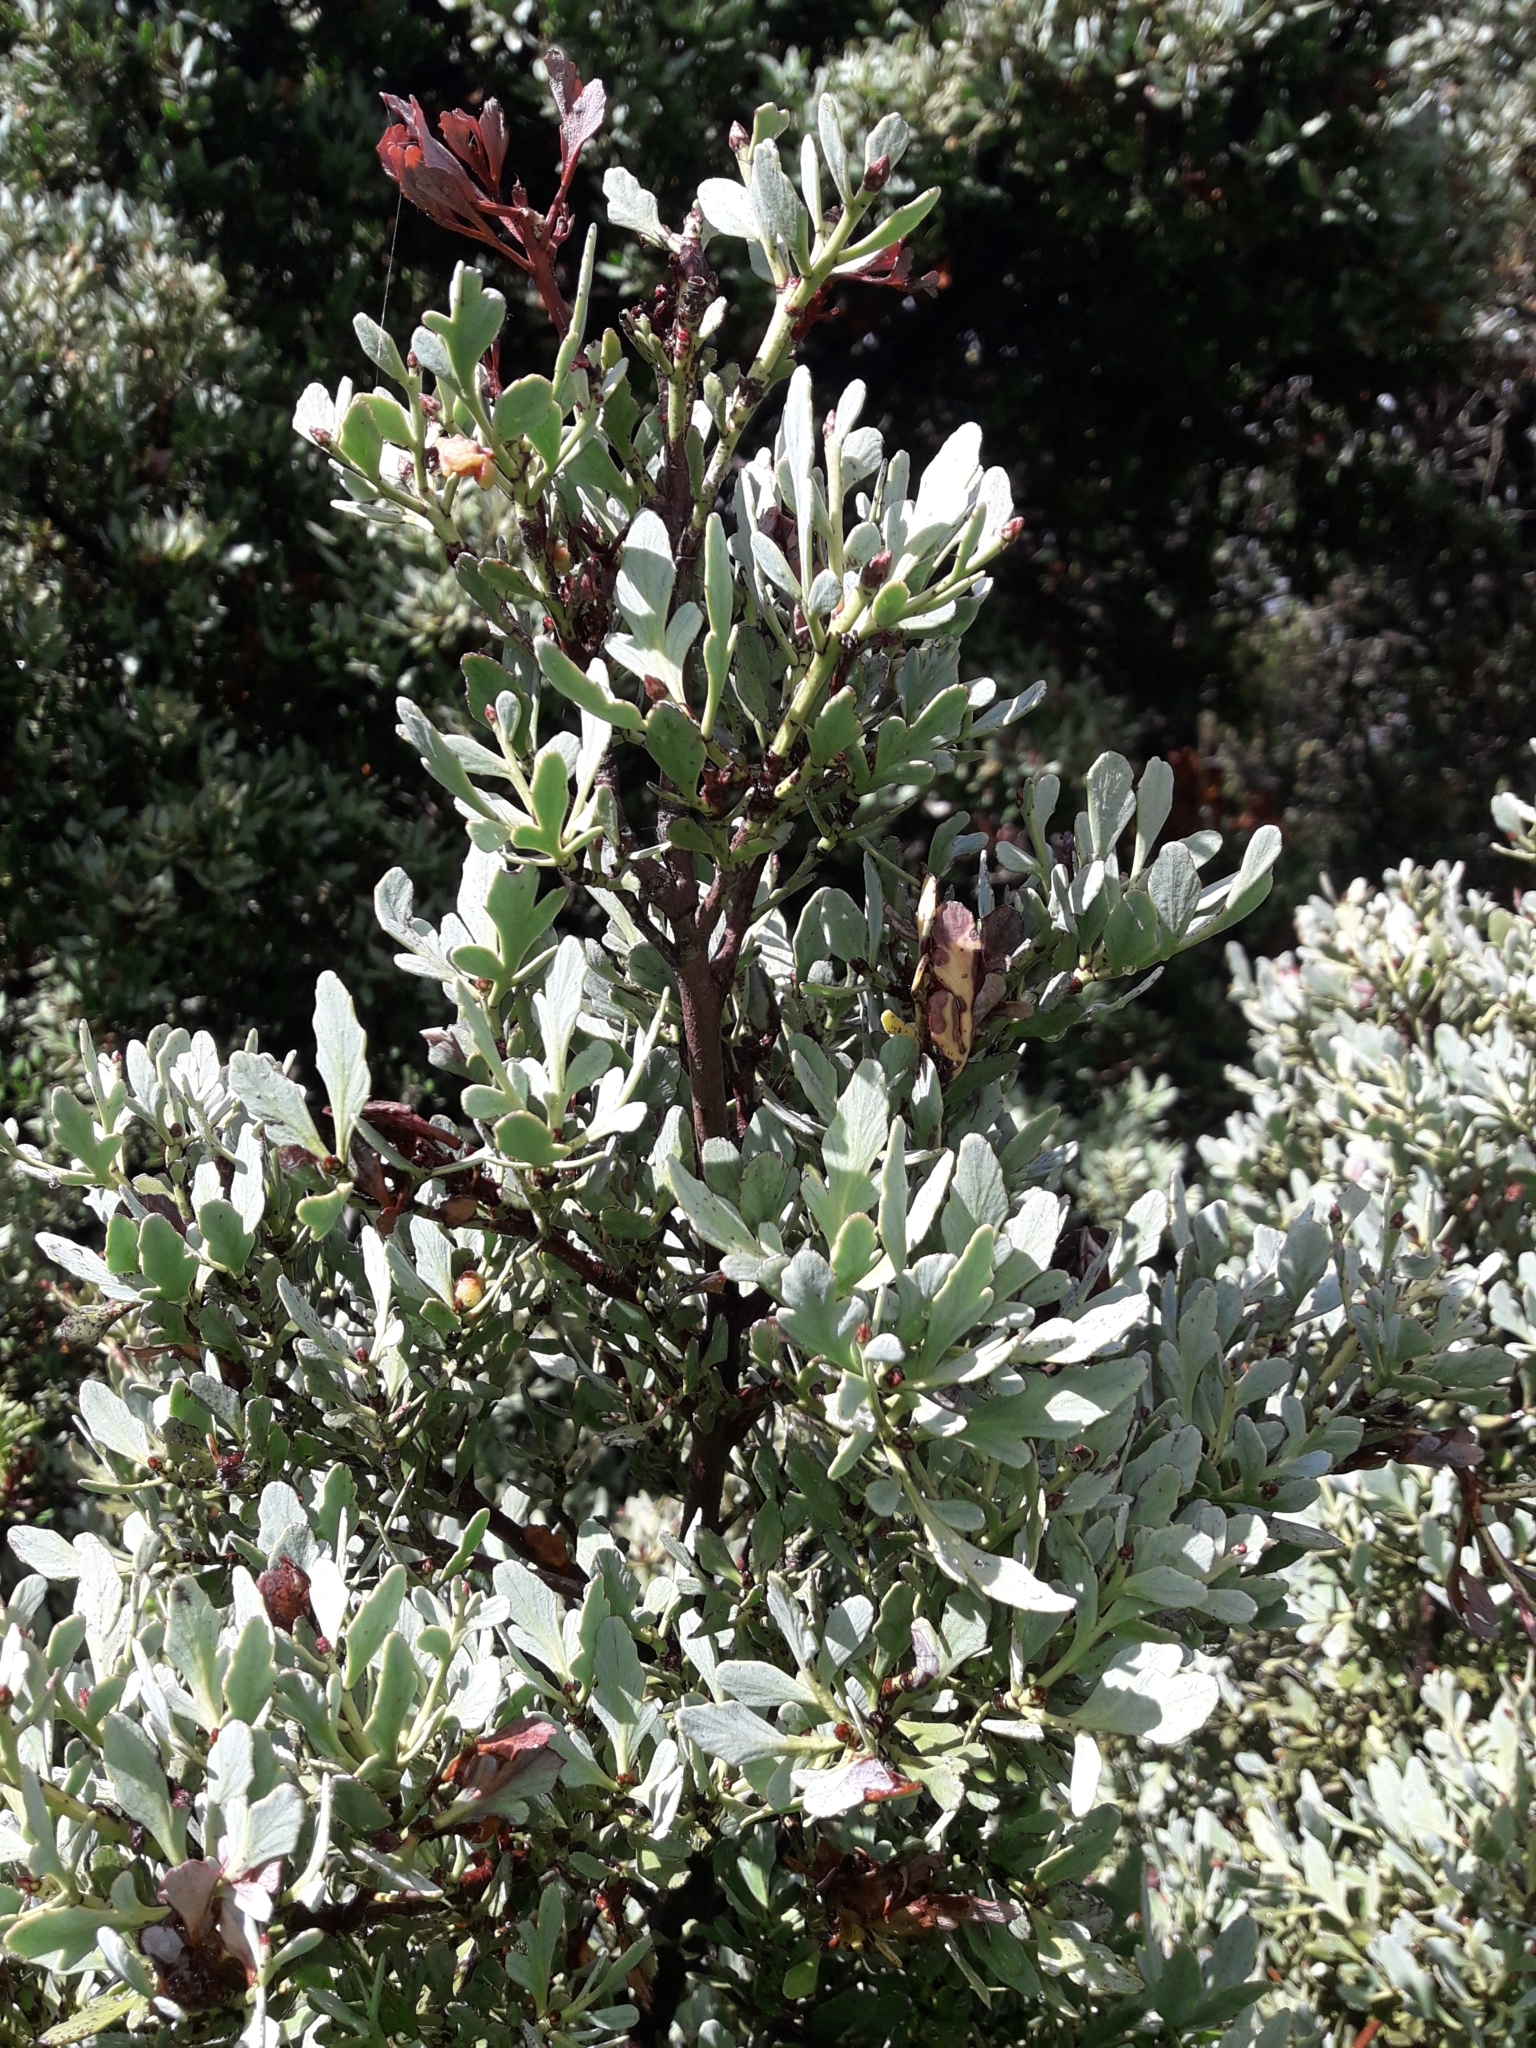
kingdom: Plantae
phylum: Tracheophyta
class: Pinopsida
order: Pinales
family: Phyllocladaceae
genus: Phyllocladus
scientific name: Phyllocladus trichomanoides
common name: Celery pine
